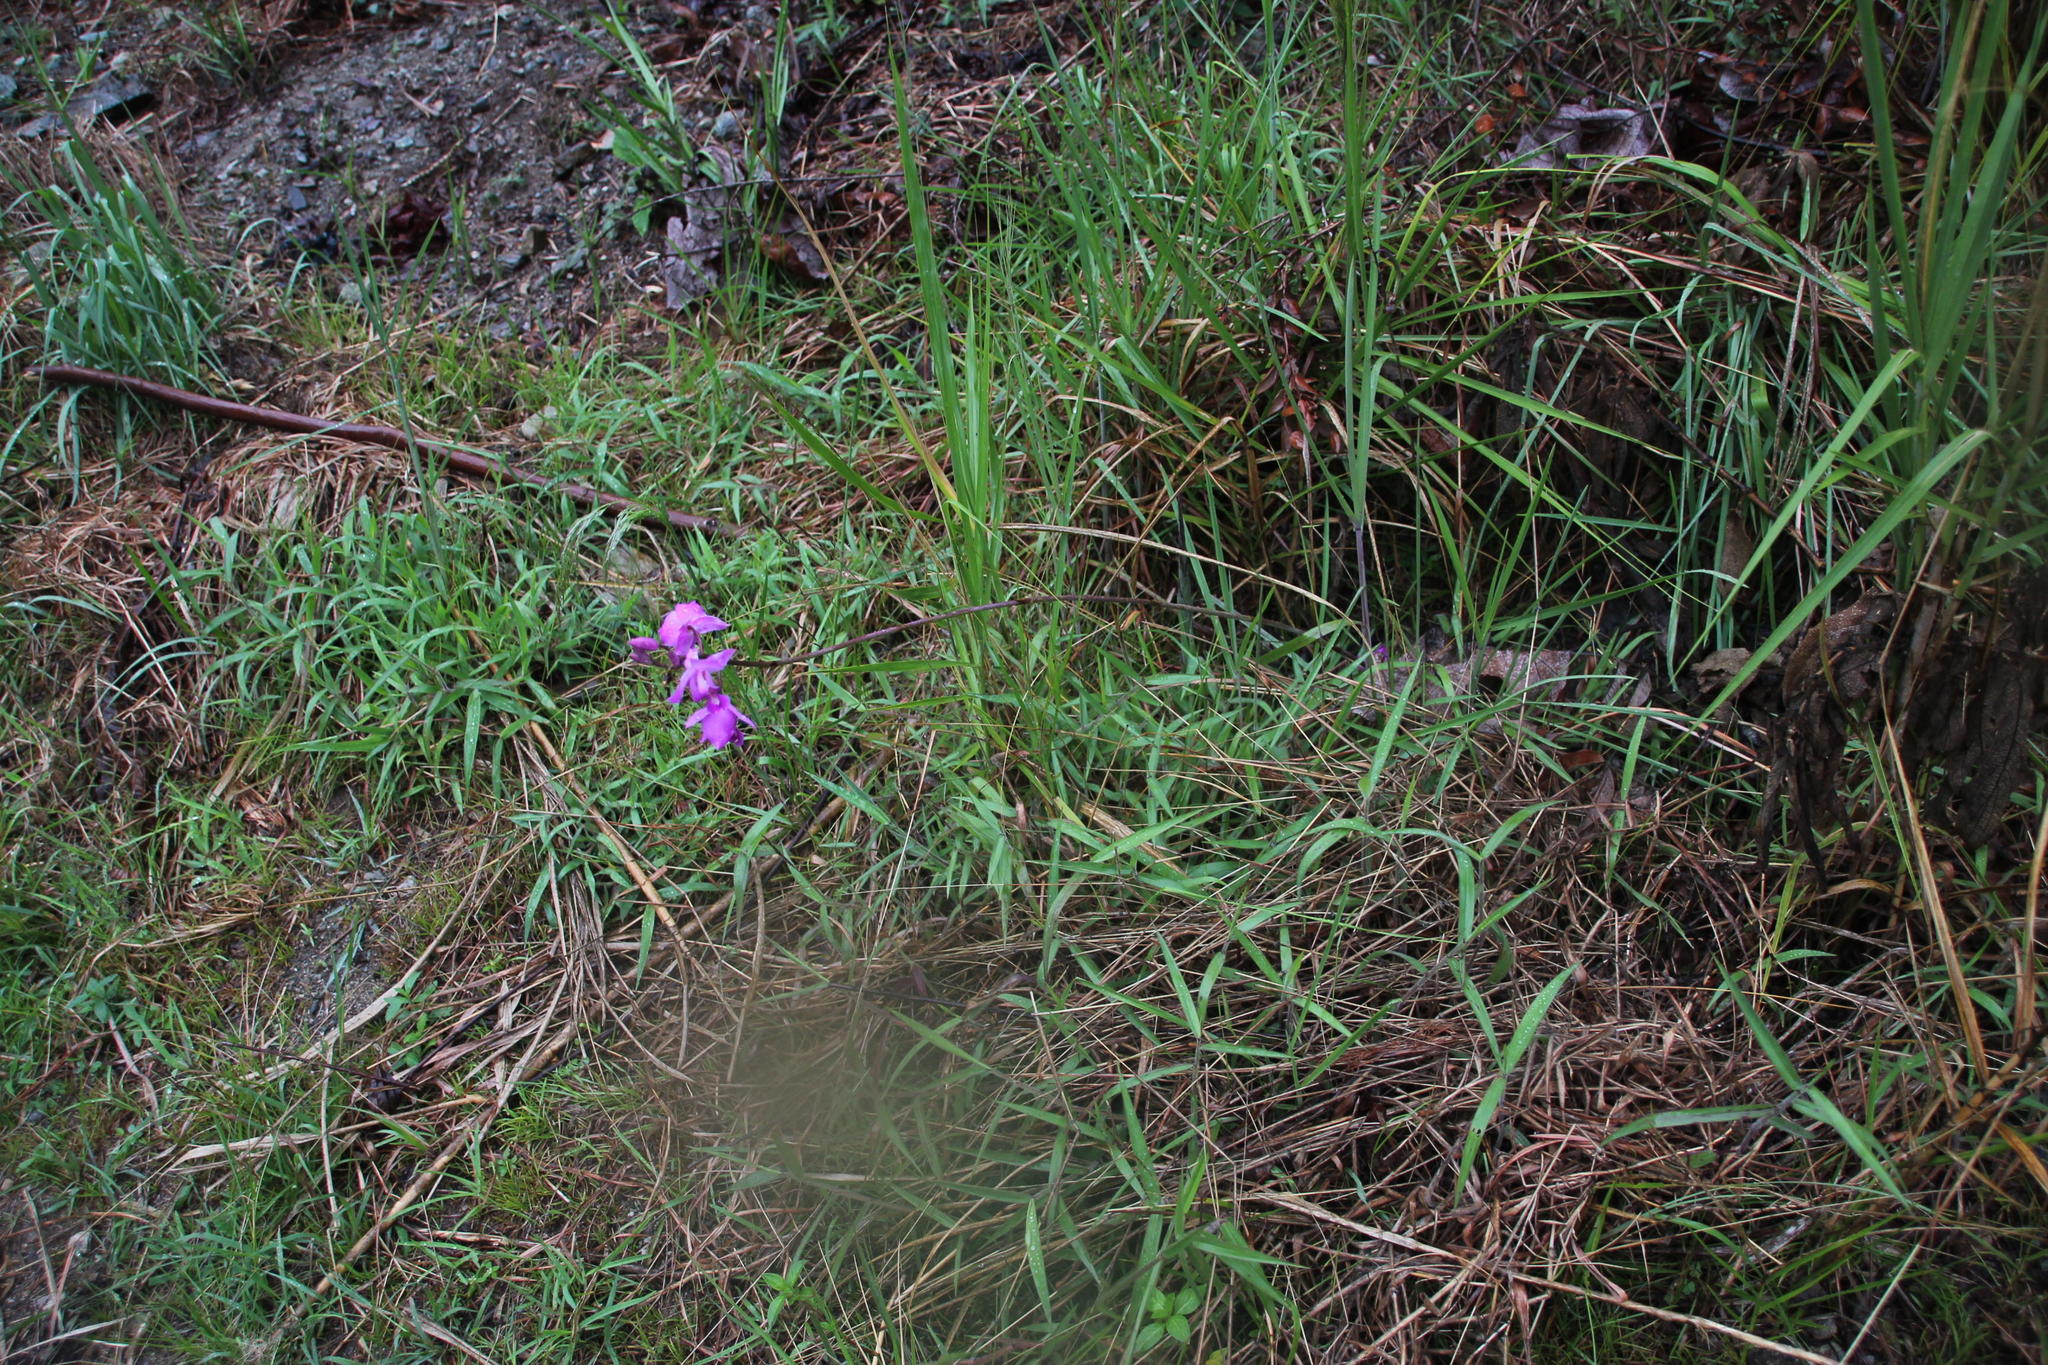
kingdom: Plantae
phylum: Tracheophyta
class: Liliopsida
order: Asparagales
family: Orchidaceae
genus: Bletia
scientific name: Bletia catenulata
